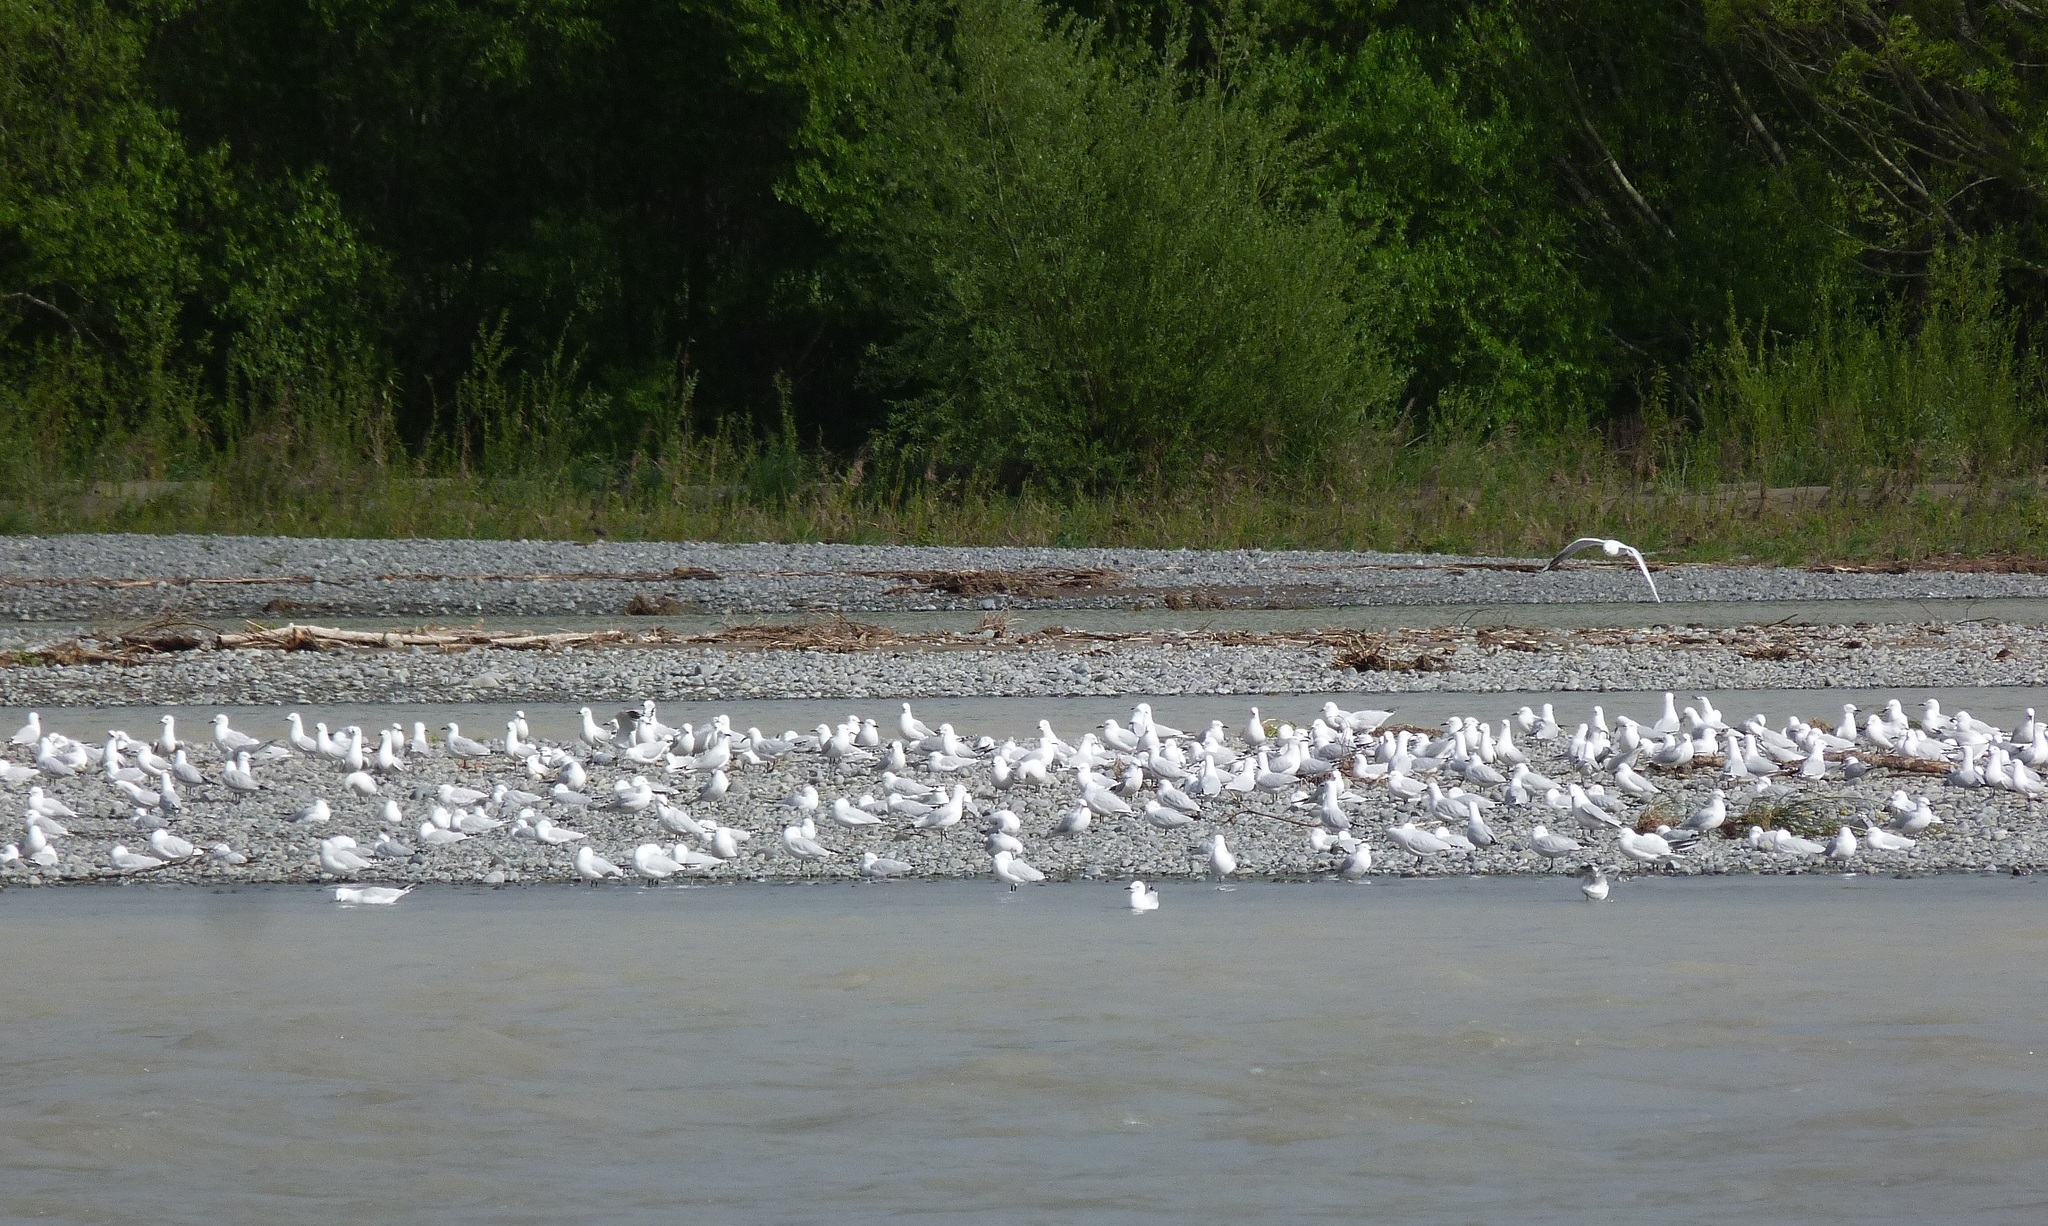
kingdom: Animalia
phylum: Chordata
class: Aves
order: Charadriiformes
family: Laridae
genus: Chroicocephalus
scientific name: Chroicocephalus bulleri
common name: Black-billed gull
